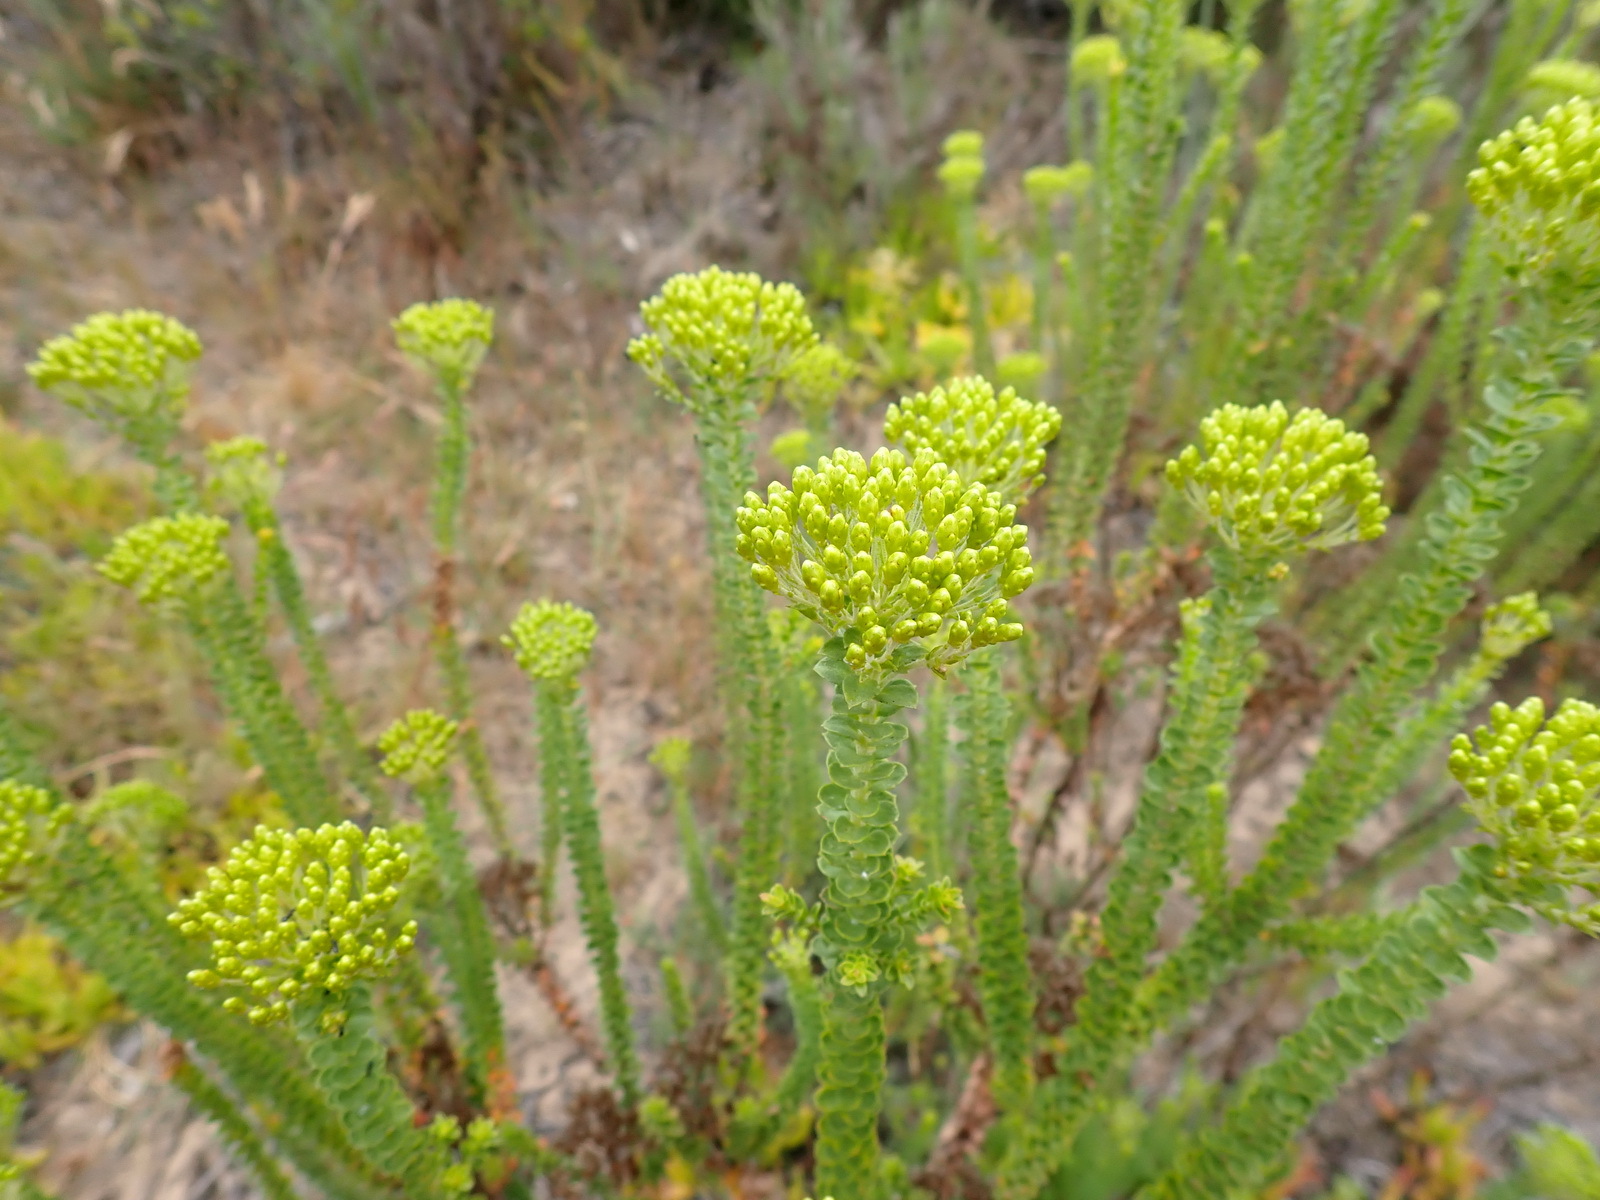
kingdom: Plantae
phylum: Tracheophyta
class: Magnoliopsida
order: Asterales
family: Asteraceae
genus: Athanasia
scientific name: Athanasia quinquedentata
